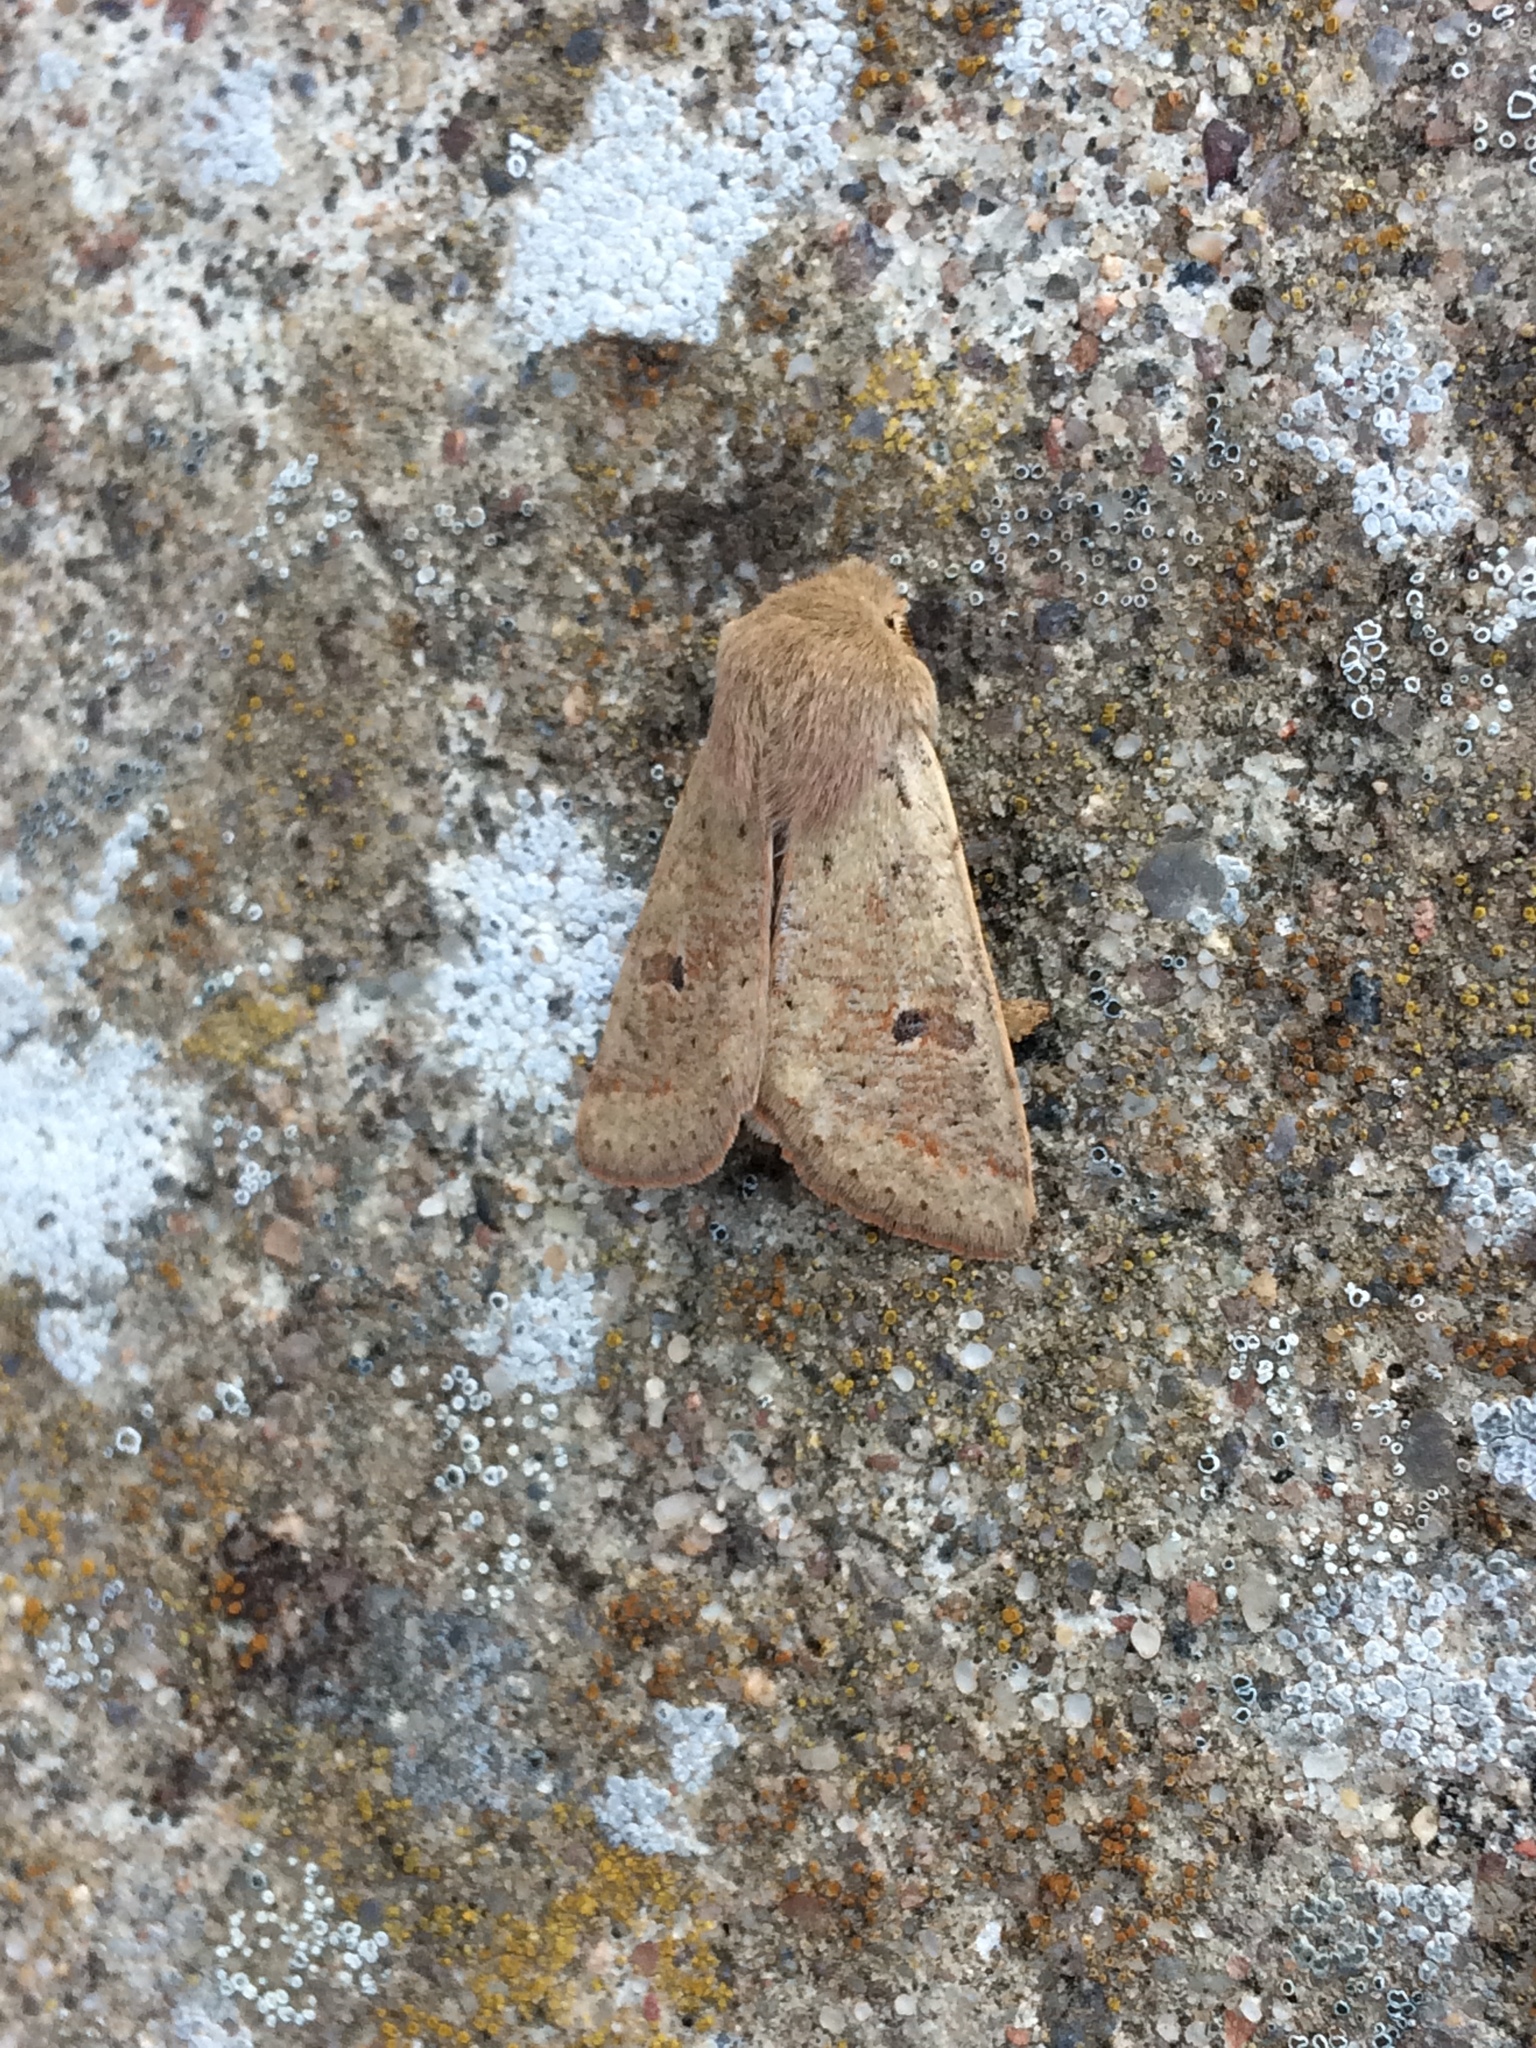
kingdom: Animalia
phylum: Arthropoda
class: Insecta
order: Lepidoptera
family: Noctuidae
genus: Orthosia
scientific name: Orthosia cruda
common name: Small quaker
